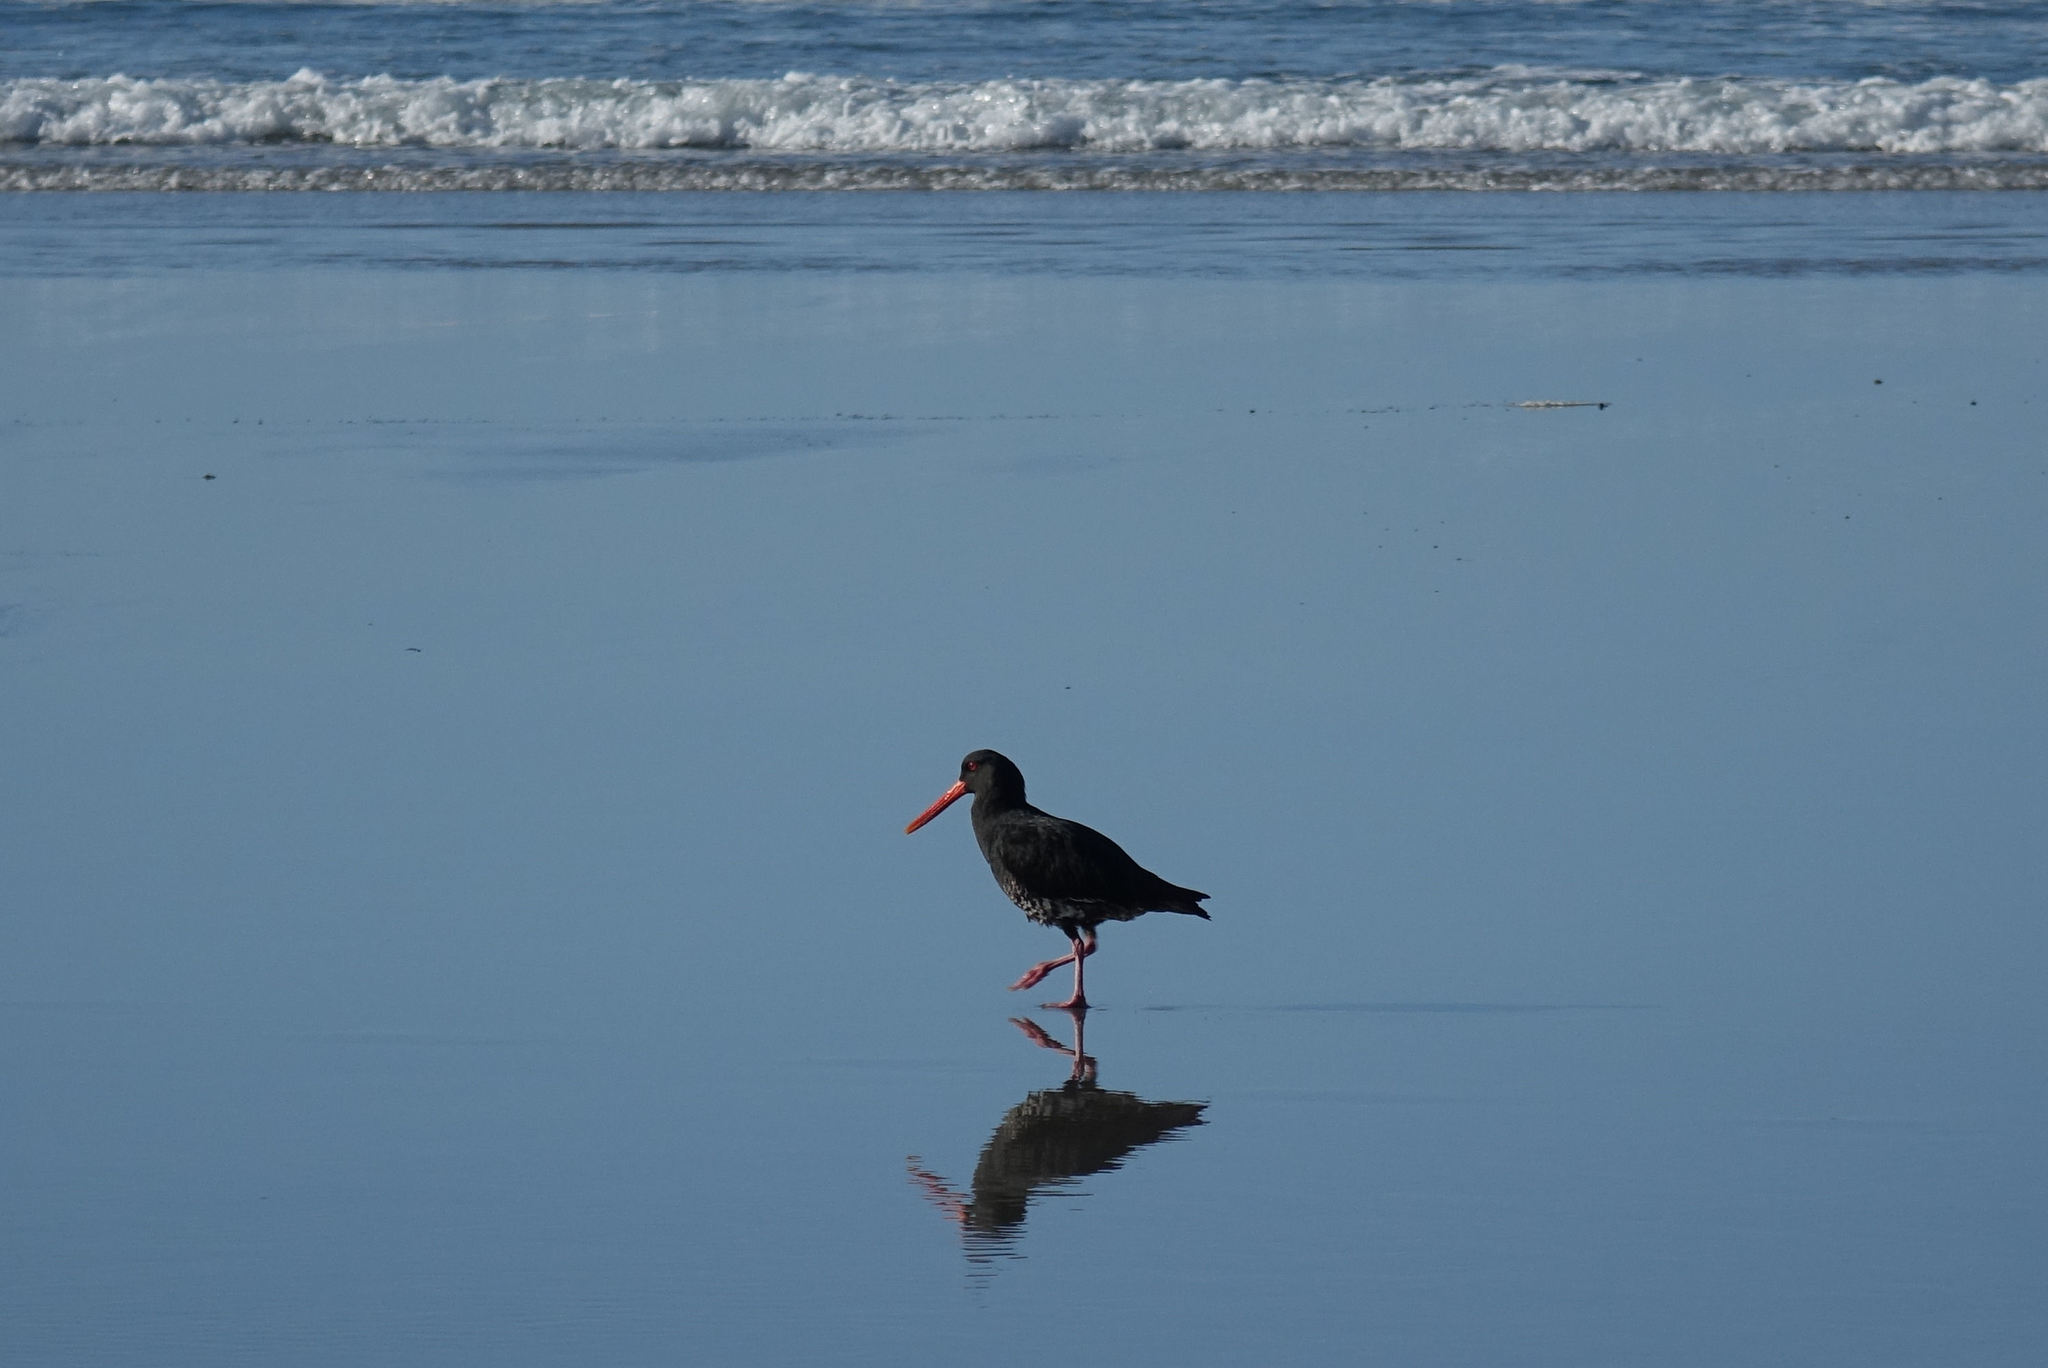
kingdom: Animalia
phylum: Chordata
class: Aves
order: Charadriiformes
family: Haematopodidae
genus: Haematopus
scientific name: Haematopus unicolor
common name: Variable oystercatcher
